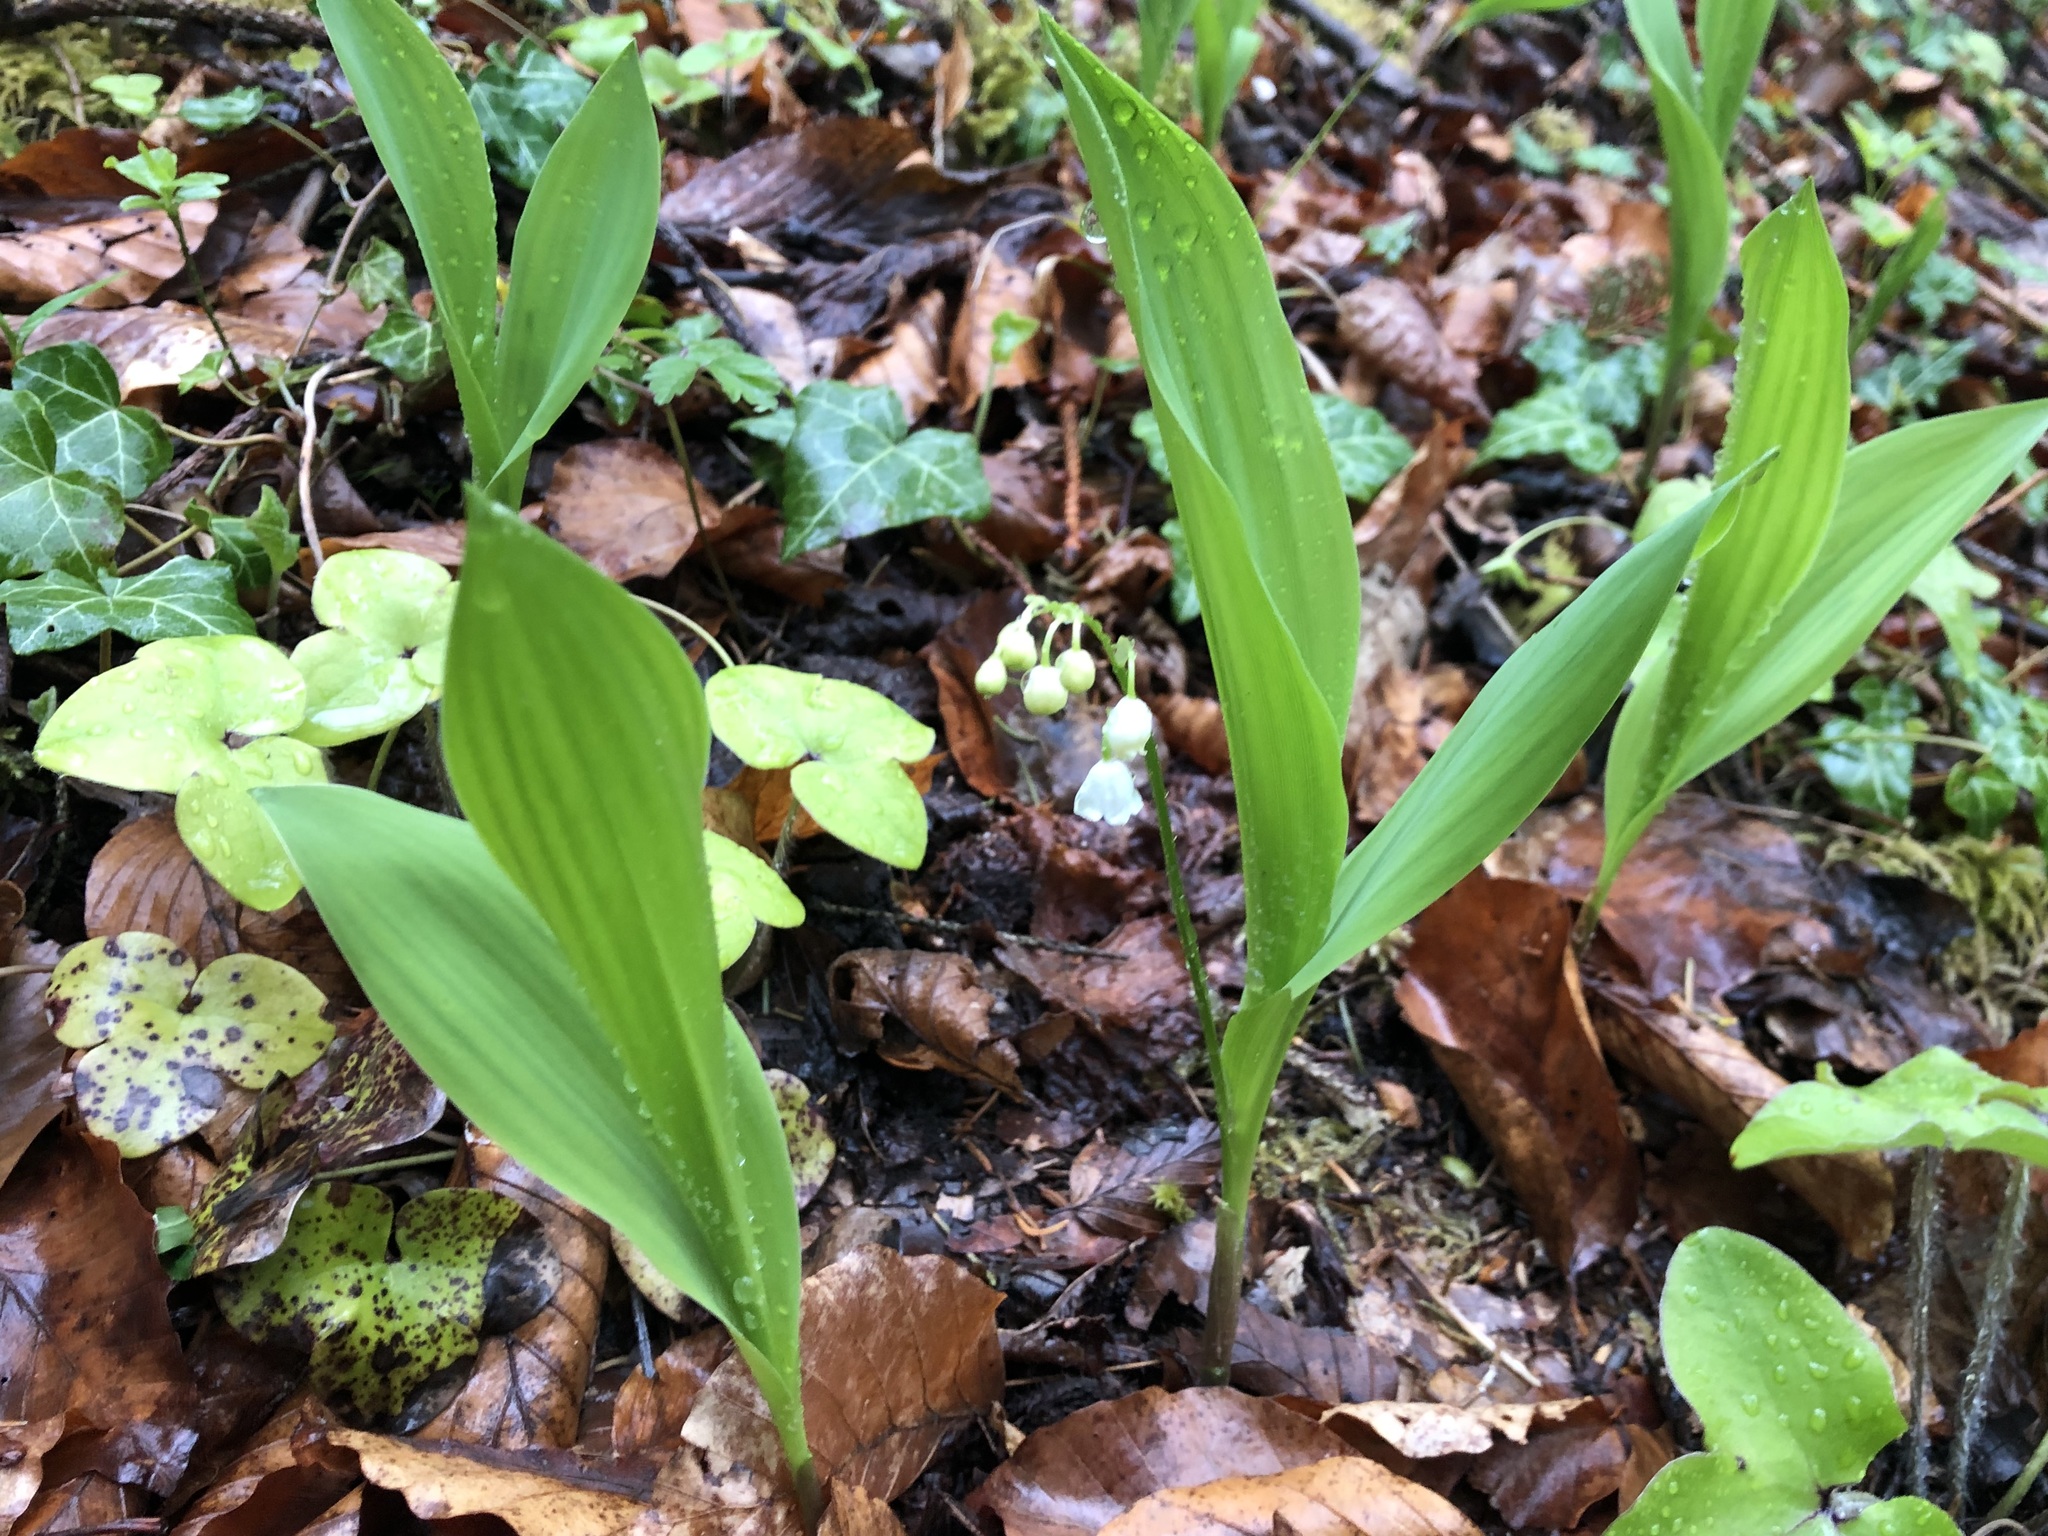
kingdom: Plantae
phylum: Tracheophyta
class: Liliopsida
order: Asparagales
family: Asparagaceae
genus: Convallaria
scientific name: Convallaria majalis
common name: Lily-of-the-valley
